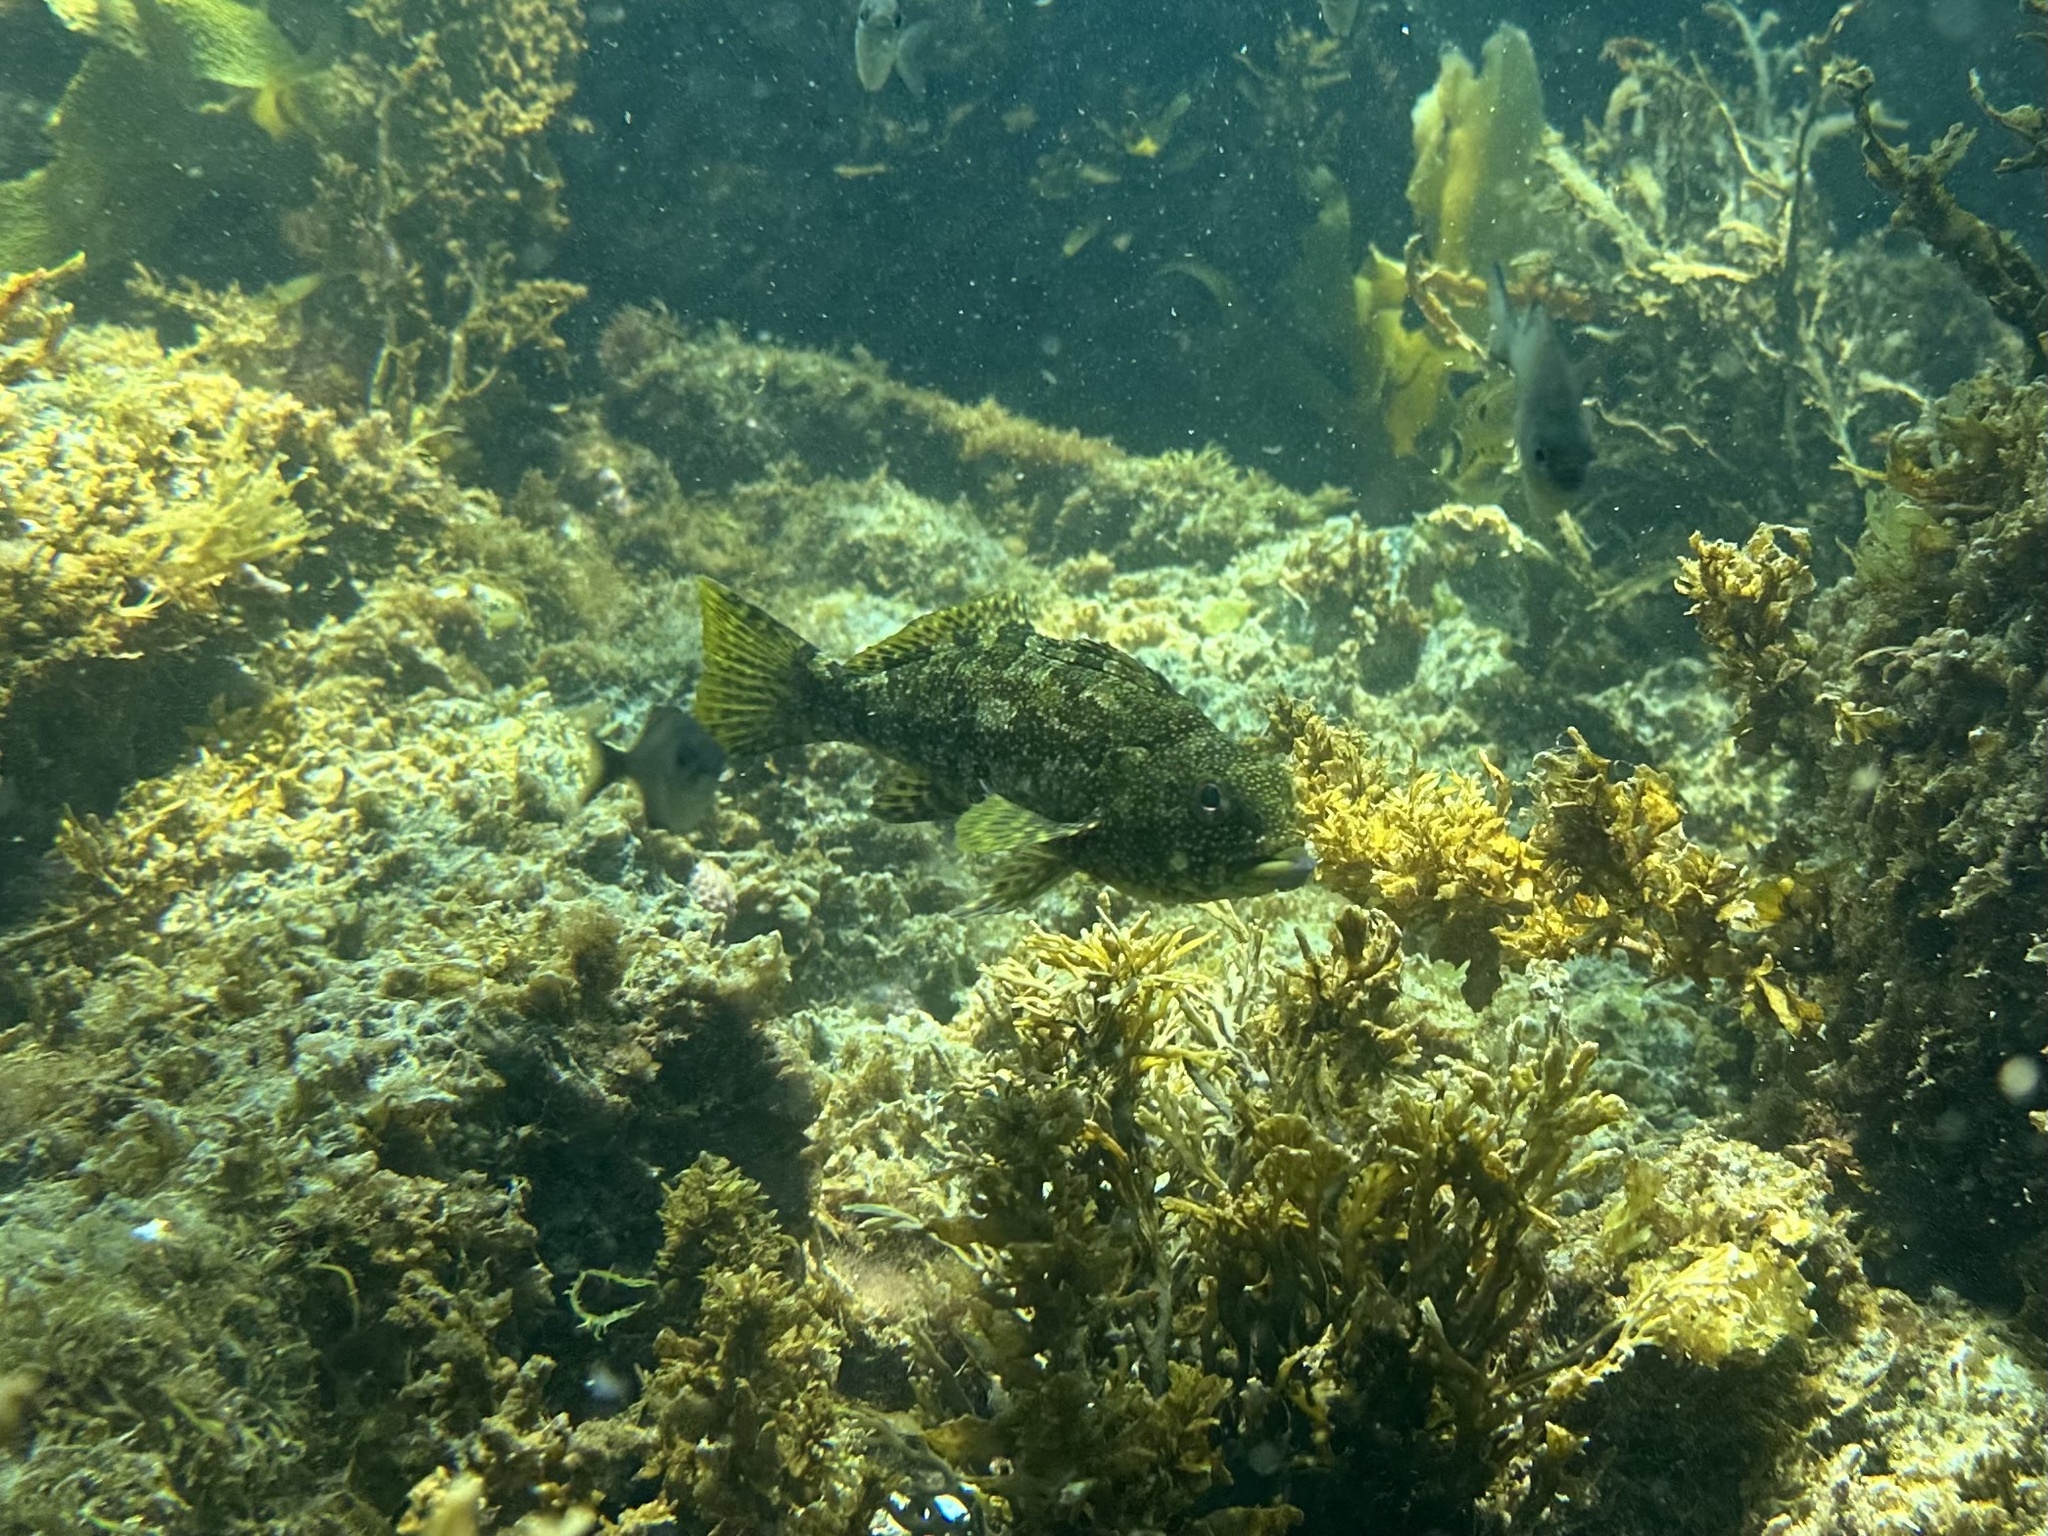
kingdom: Animalia
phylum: Chordata
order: Perciformes
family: Chironemidae
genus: Chironemus
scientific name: Chironemus marmoratus
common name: Kelpfish
